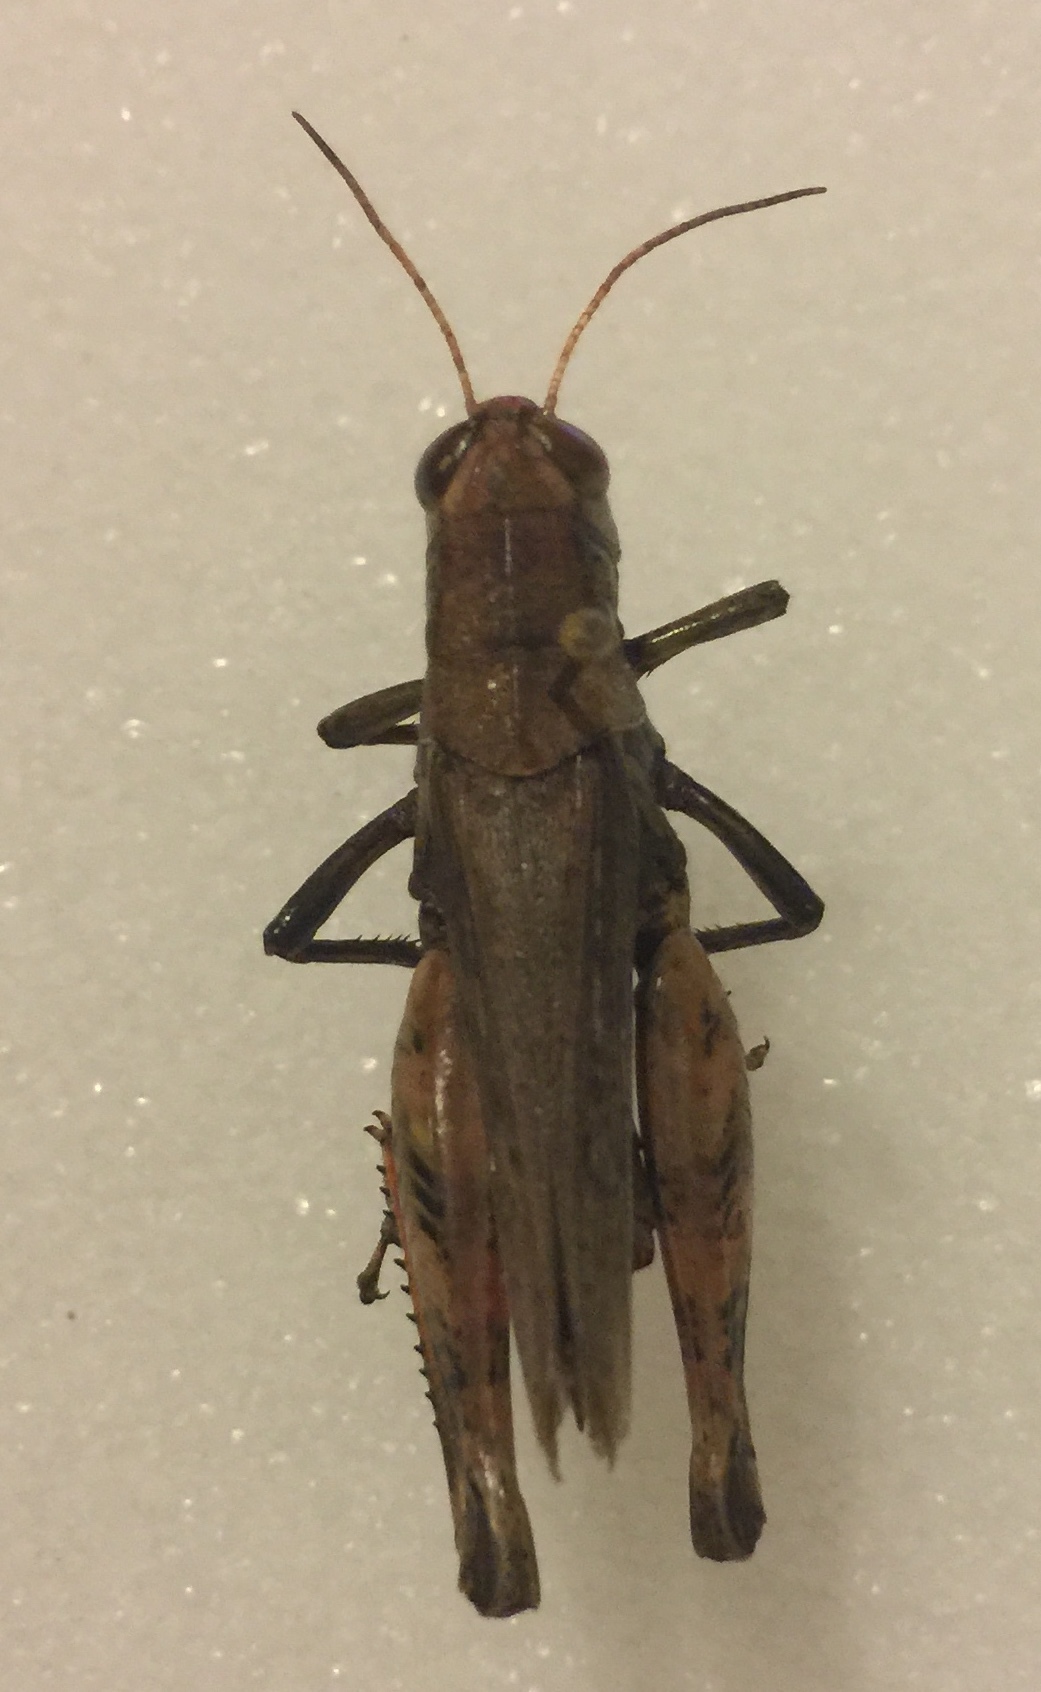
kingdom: Animalia
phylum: Arthropoda
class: Insecta
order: Orthoptera
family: Acrididae
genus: Melanoplus
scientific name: Melanoplus ponderosus
